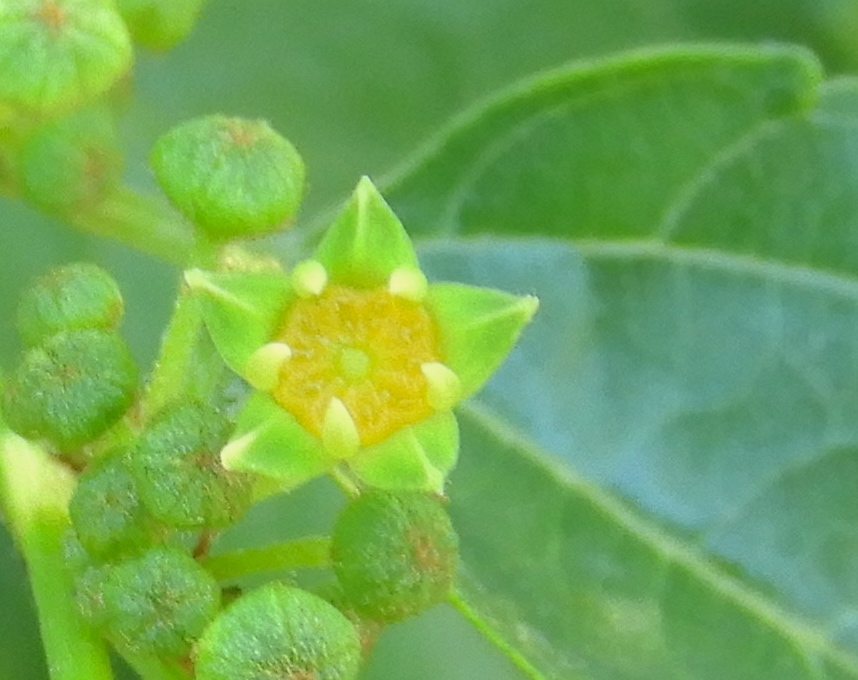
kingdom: Plantae
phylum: Tracheophyta
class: Magnoliopsida
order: Rosales
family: Rhamnaceae
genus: Colubrina
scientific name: Colubrina triflora
